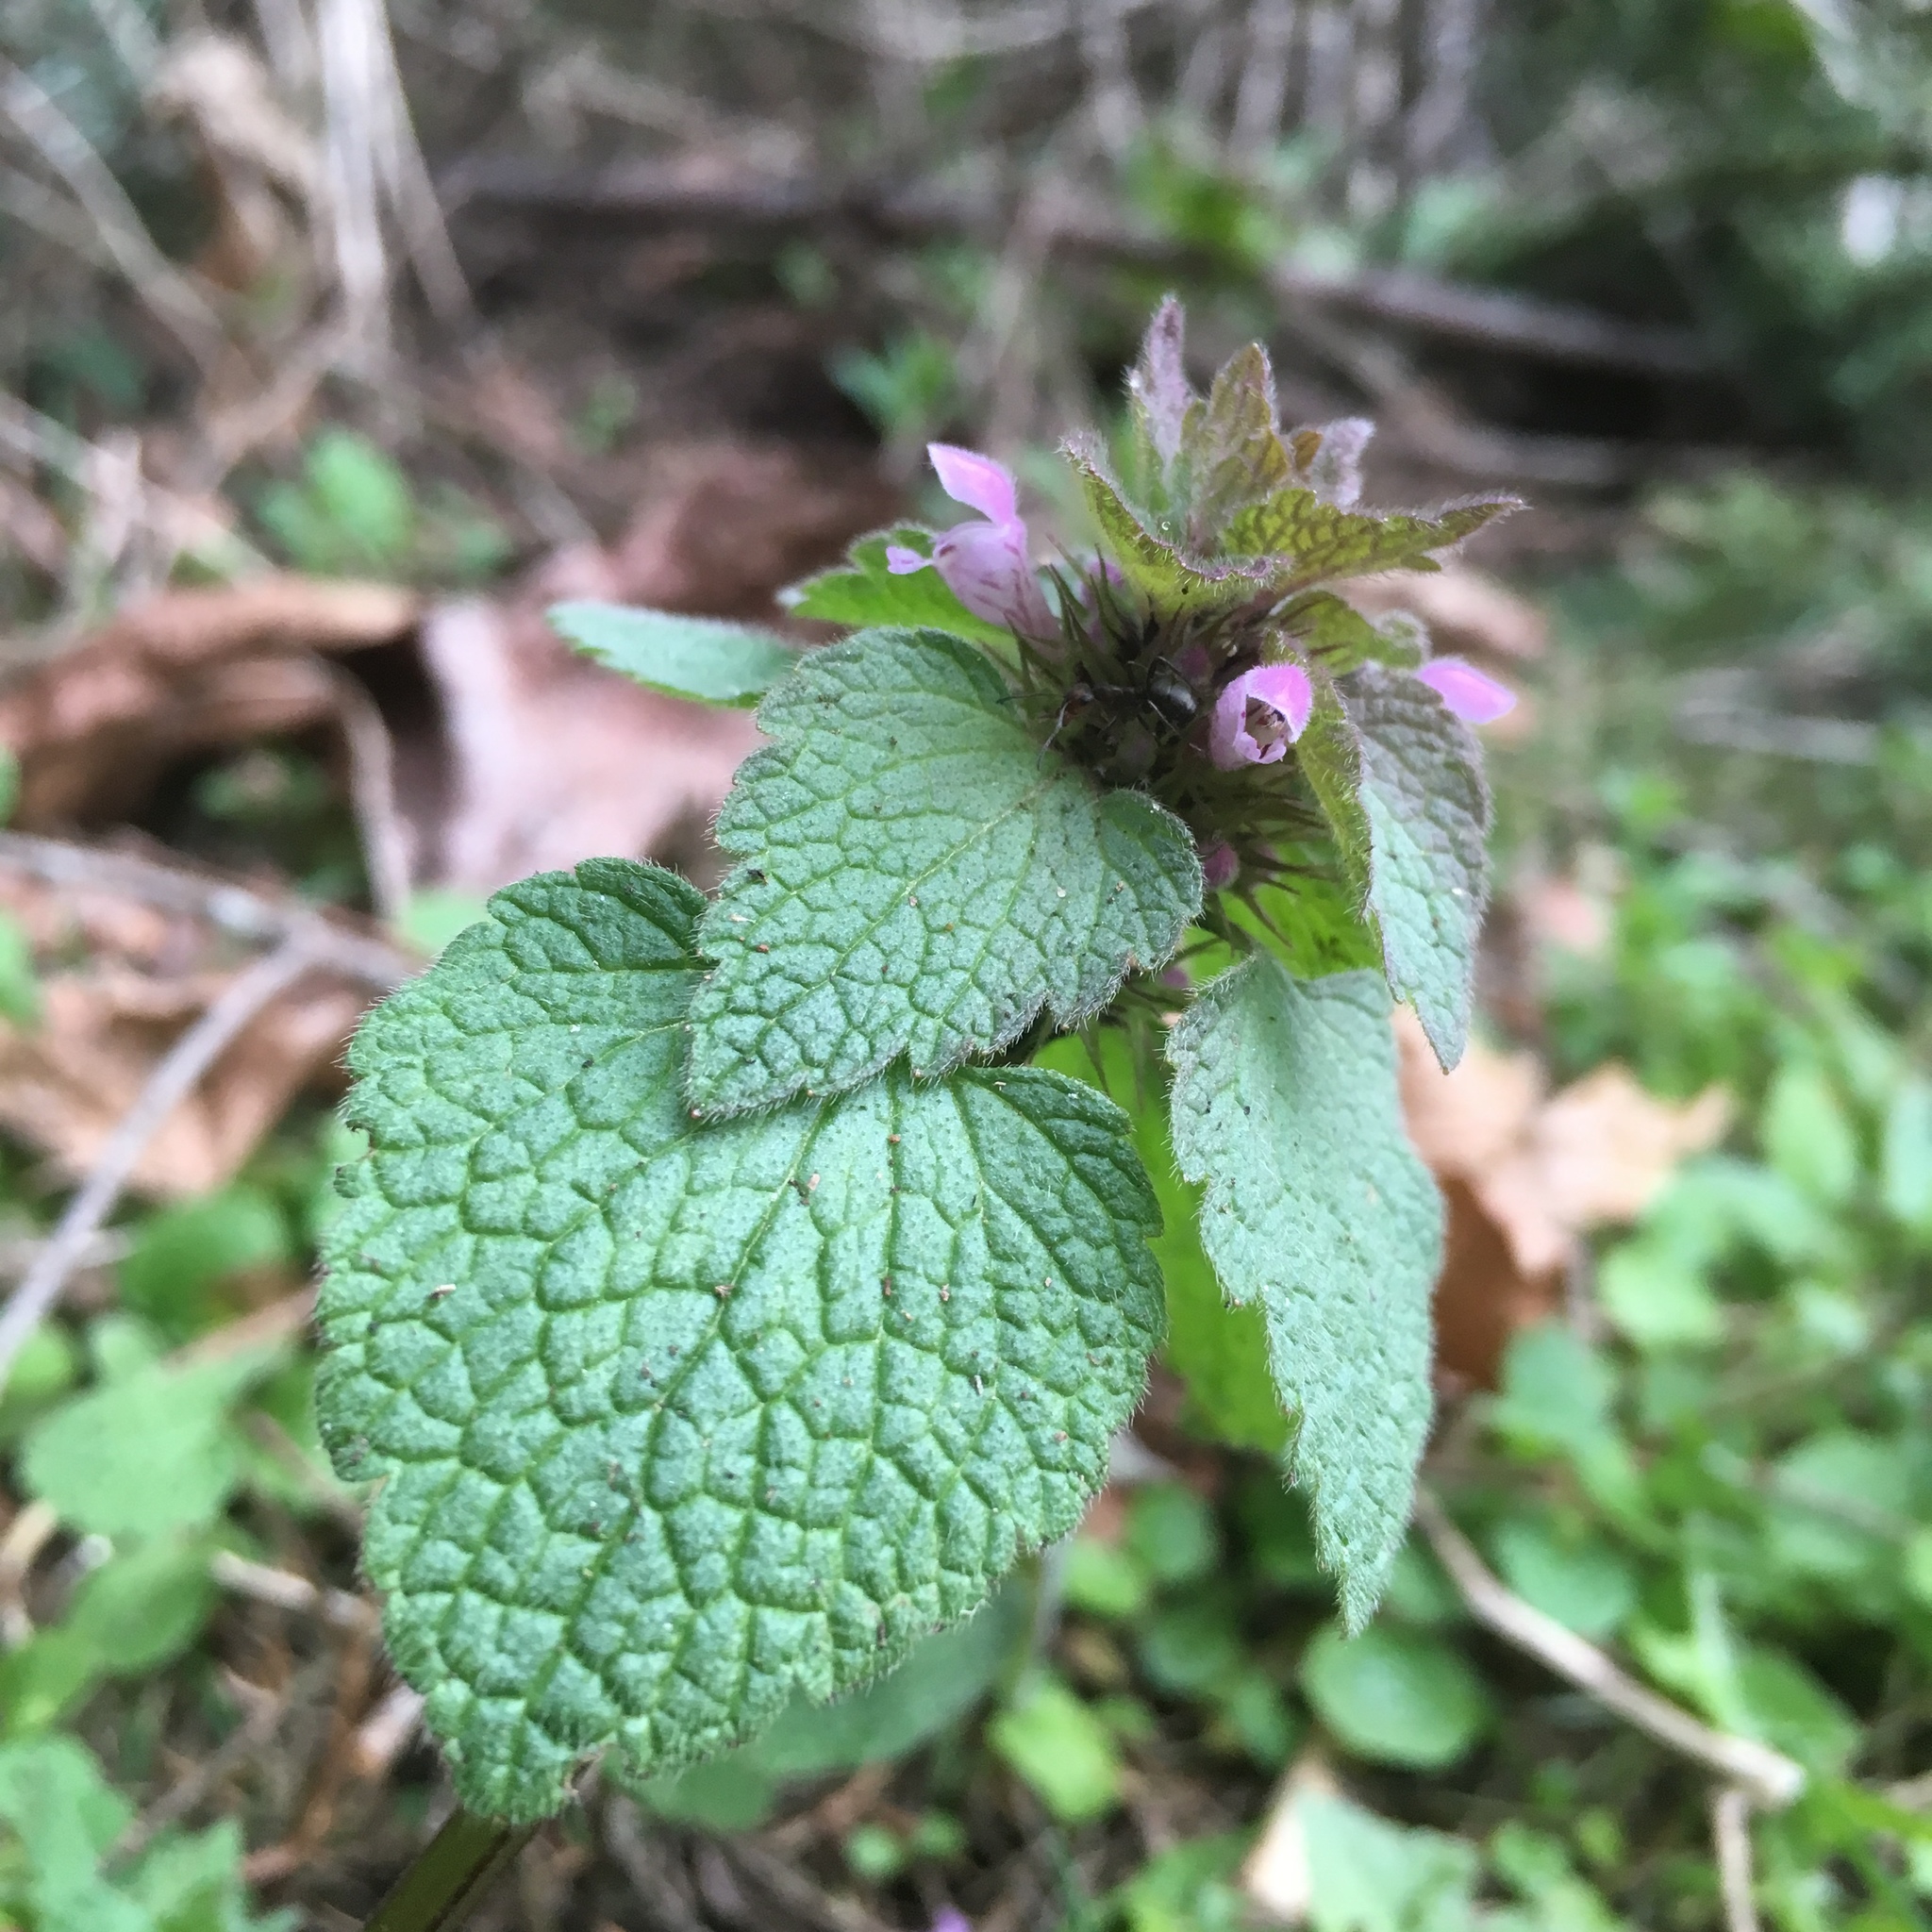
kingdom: Plantae
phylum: Tracheophyta
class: Magnoliopsida
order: Lamiales
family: Lamiaceae
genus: Lamium
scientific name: Lamium purpureum
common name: Red dead-nettle
